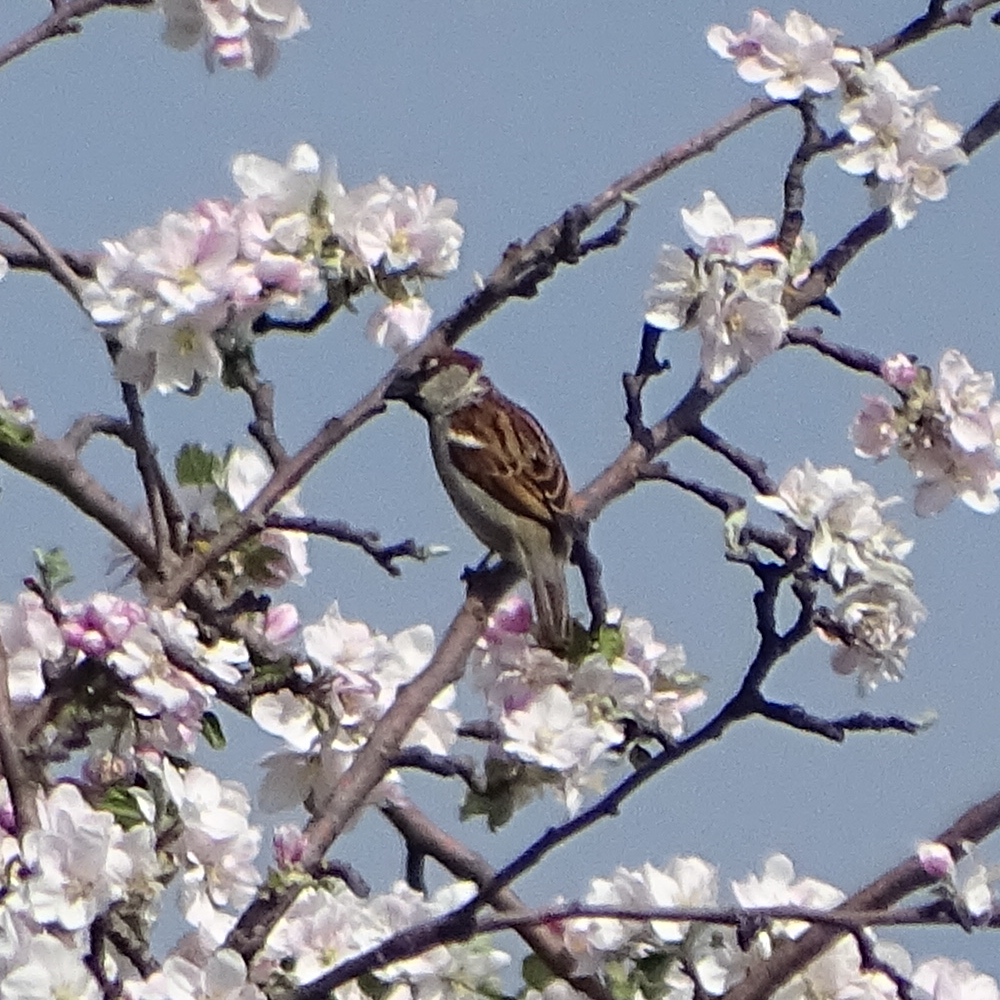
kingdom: Animalia
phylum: Chordata
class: Aves
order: Passeriformes
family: Passeridae
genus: Passer
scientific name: Passer domesticus
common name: House sparrow
